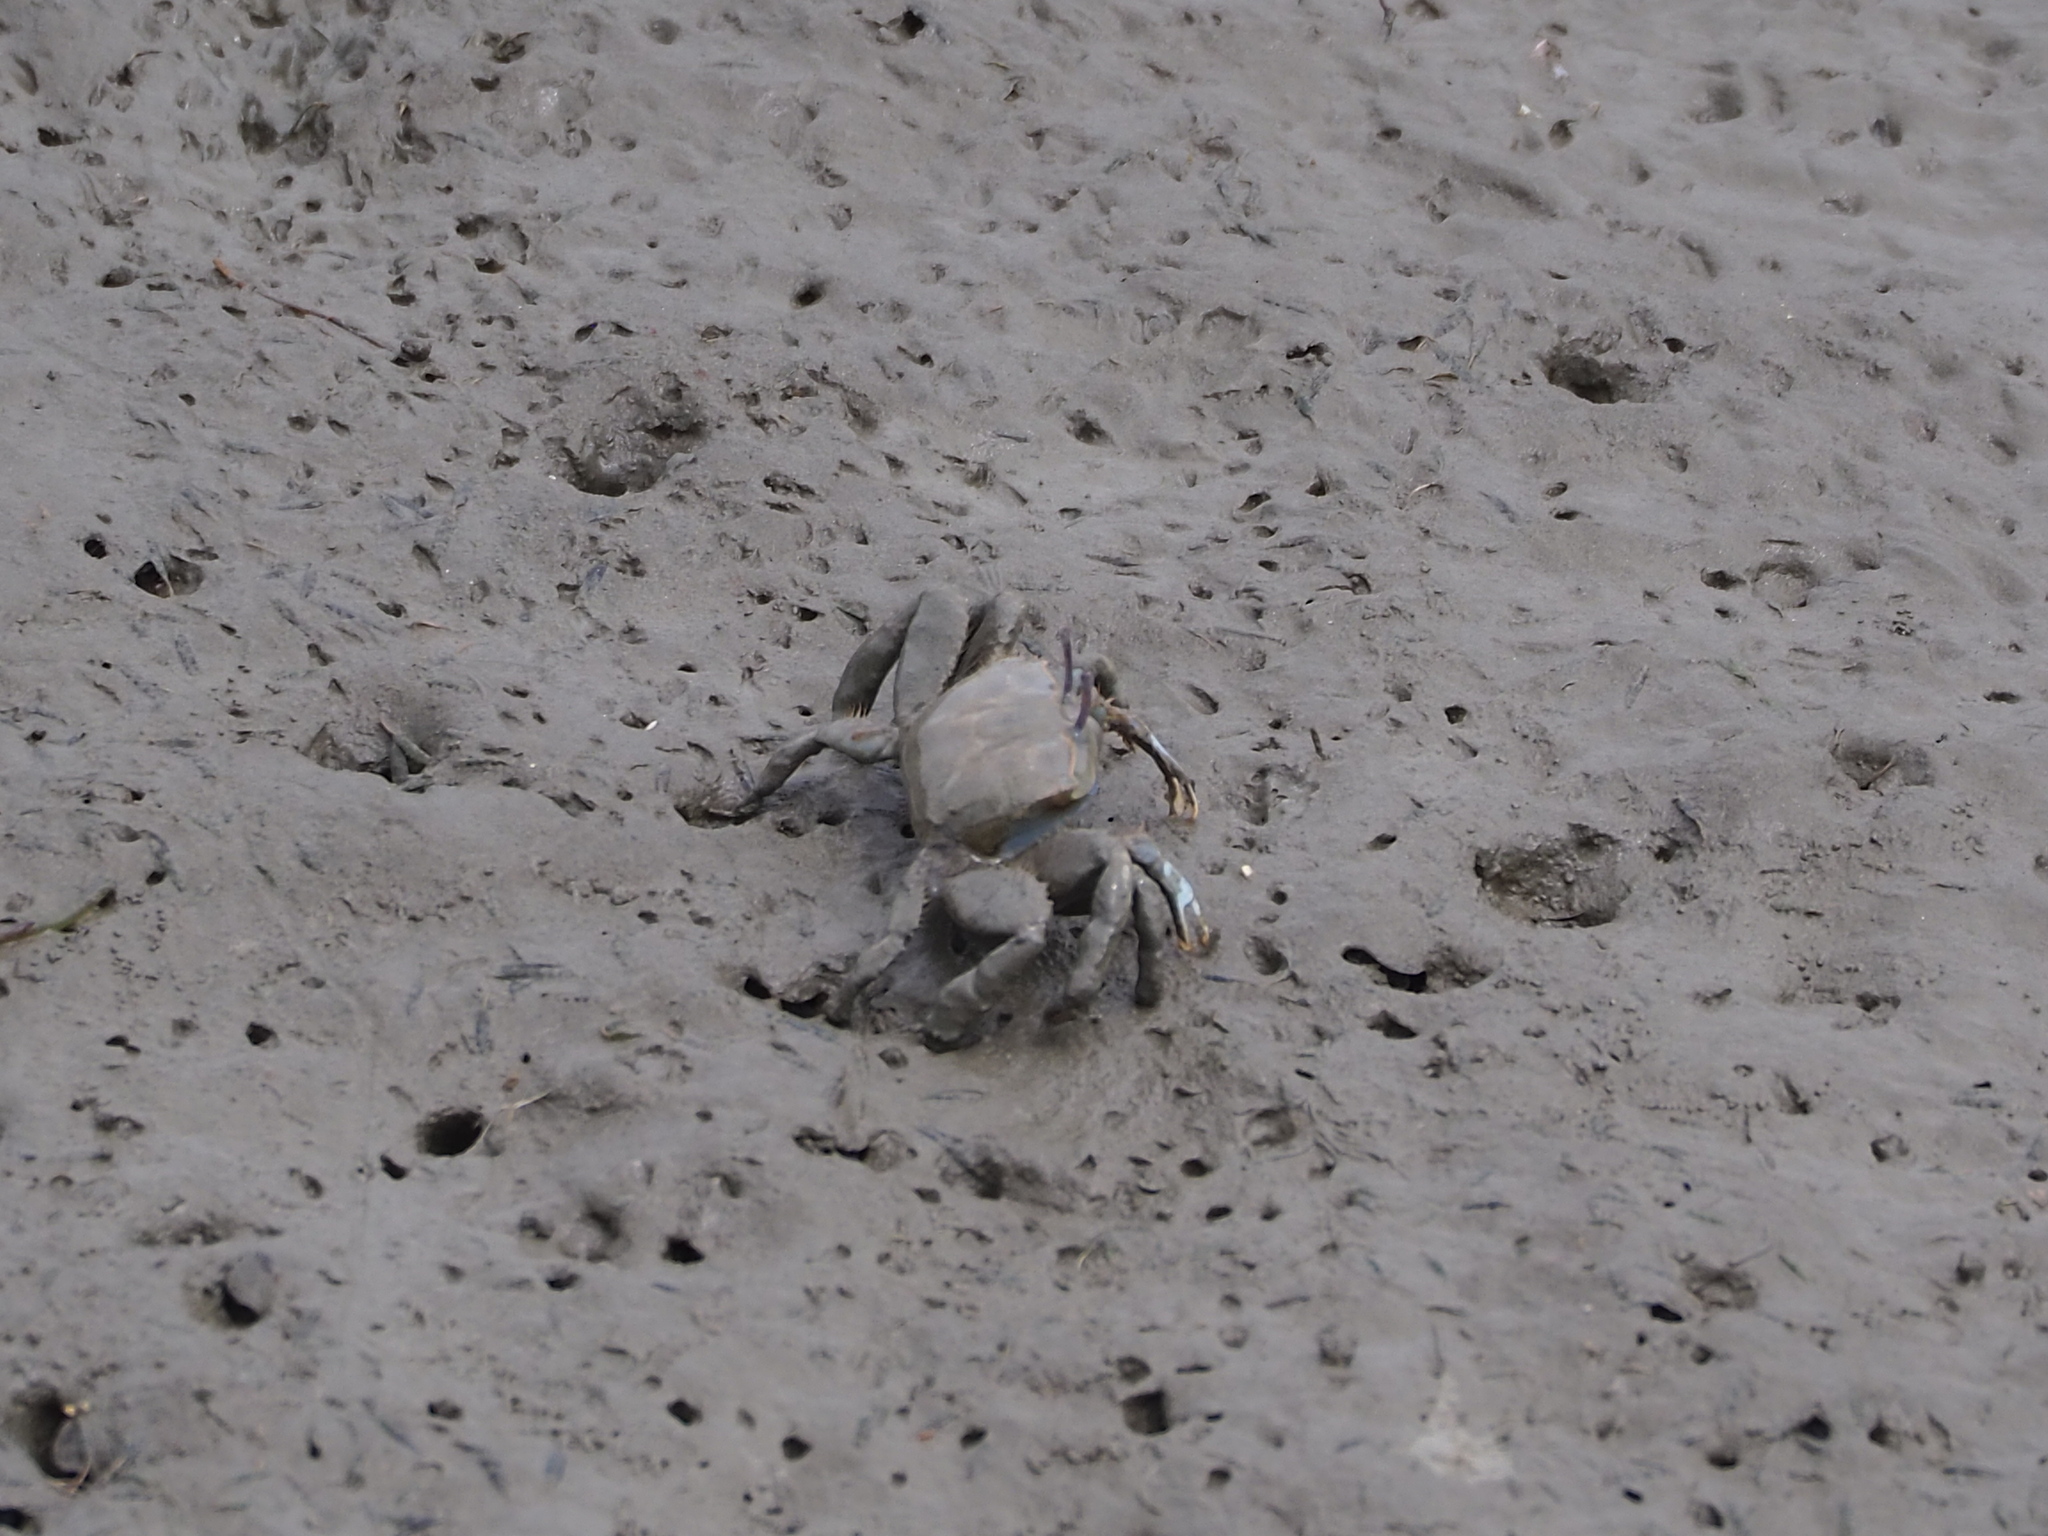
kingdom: Animalia
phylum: Arthropoda
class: Malacostraca
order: Decapoda
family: Macrophthalmidae
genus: Macrophthalmus
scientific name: Macrophthalmus tomentosus
